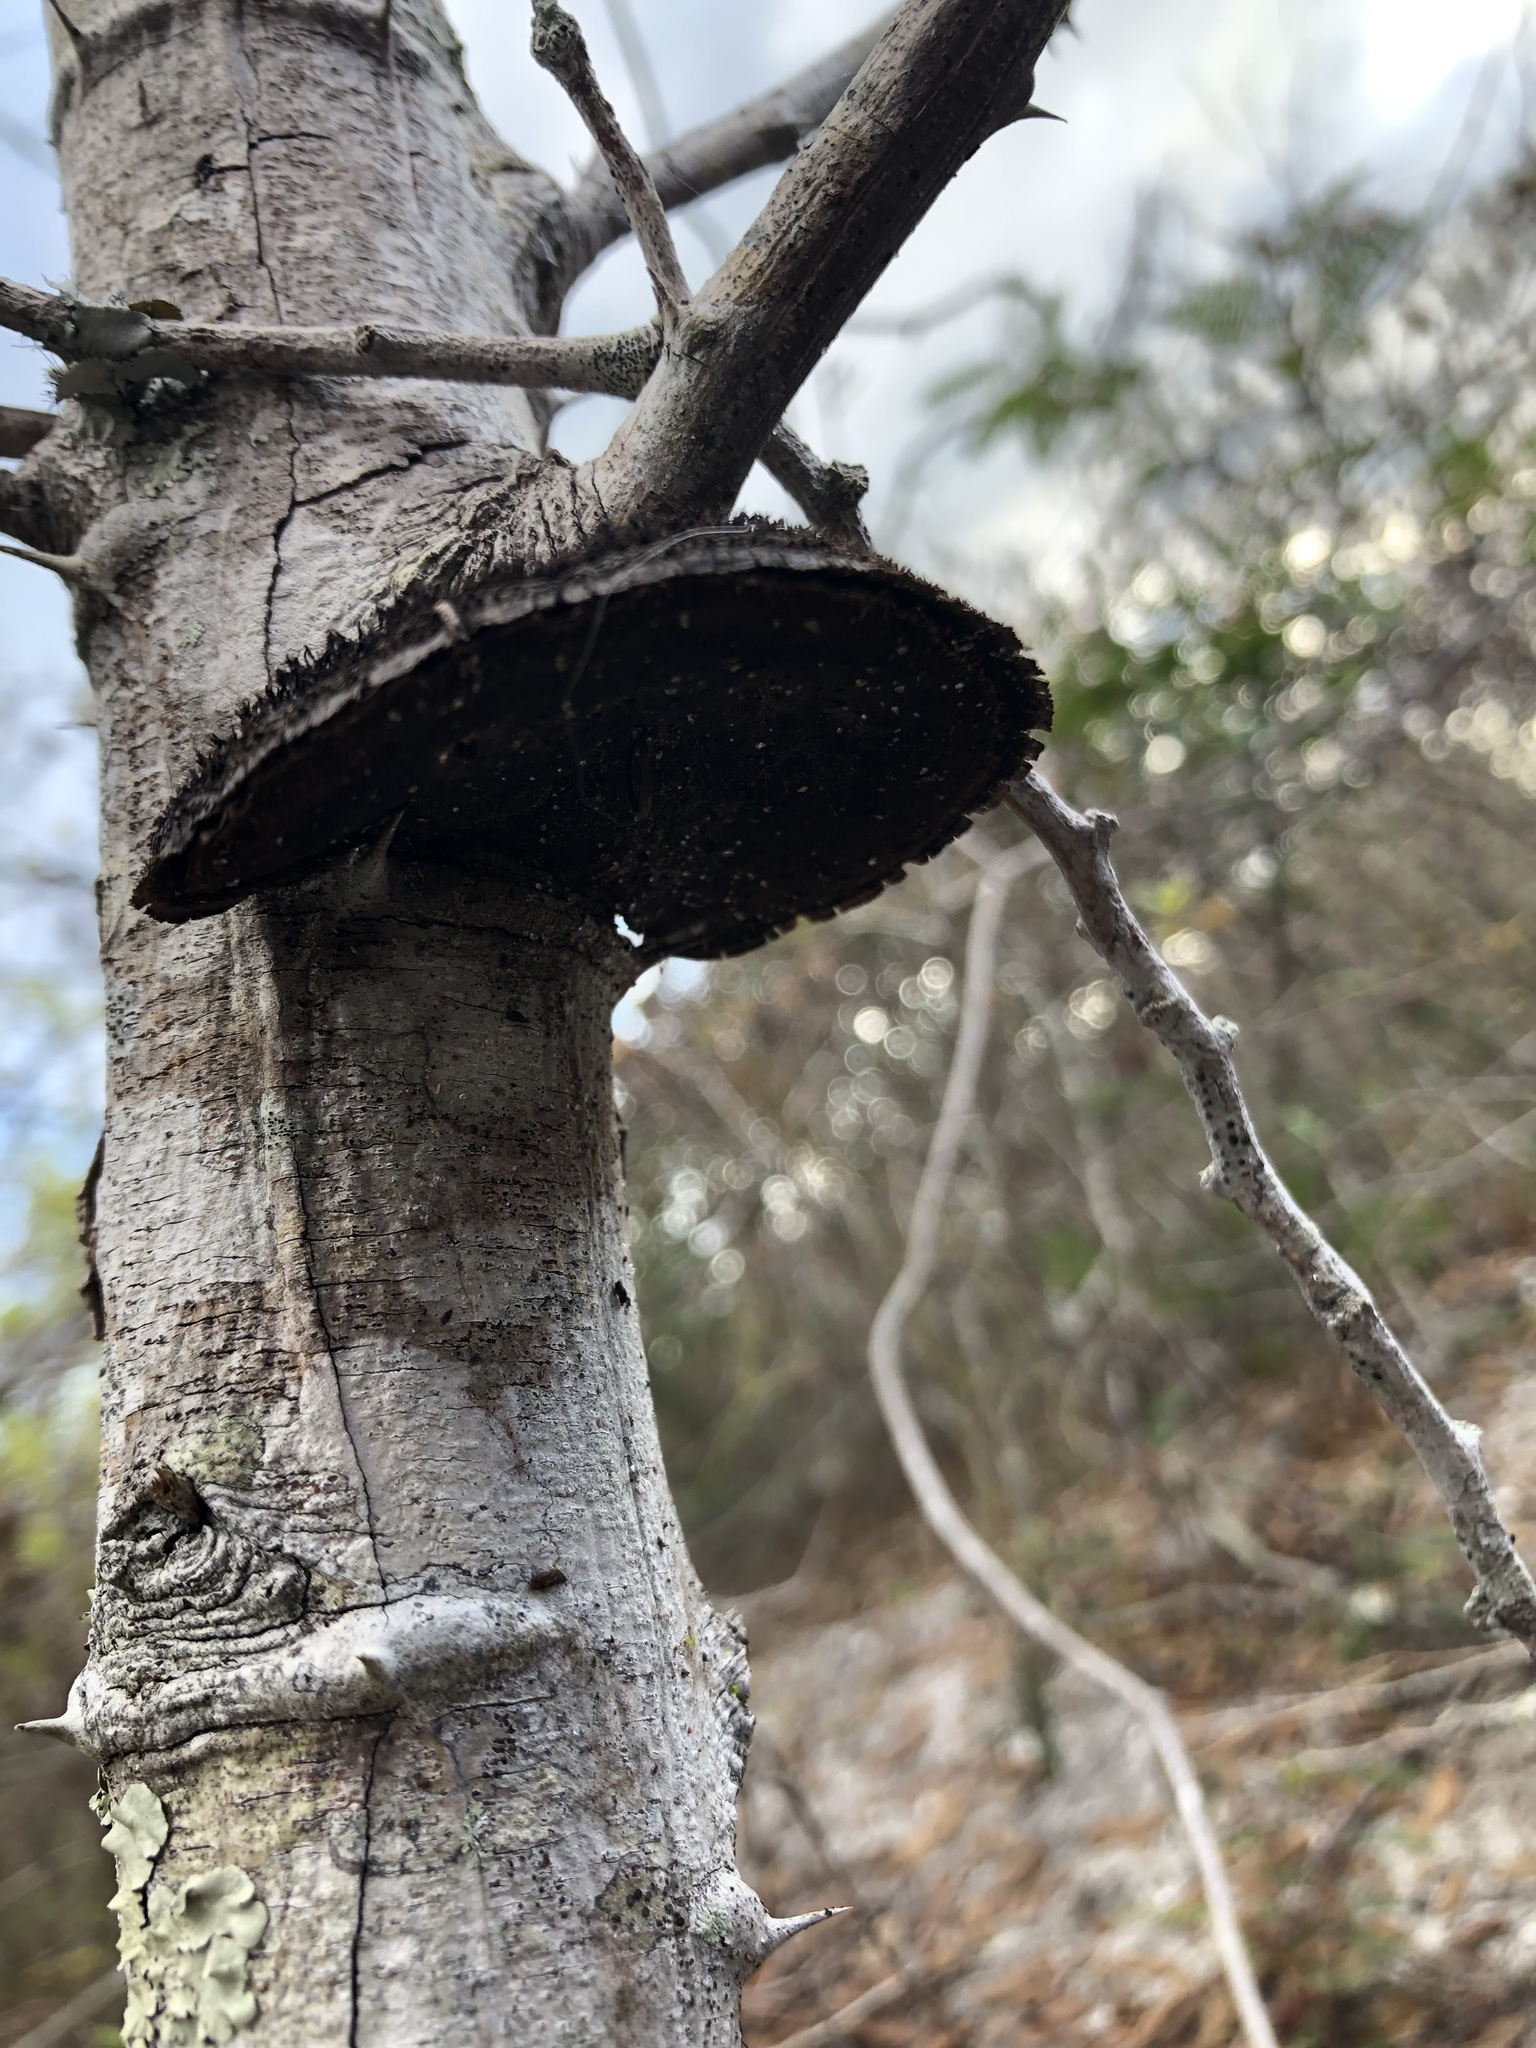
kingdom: Fungi
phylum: Basidiomycota
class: Agaricomycetes
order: Polyporales
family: Cerrenaceae
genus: Cerrena
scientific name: Cerrena hydnoides
